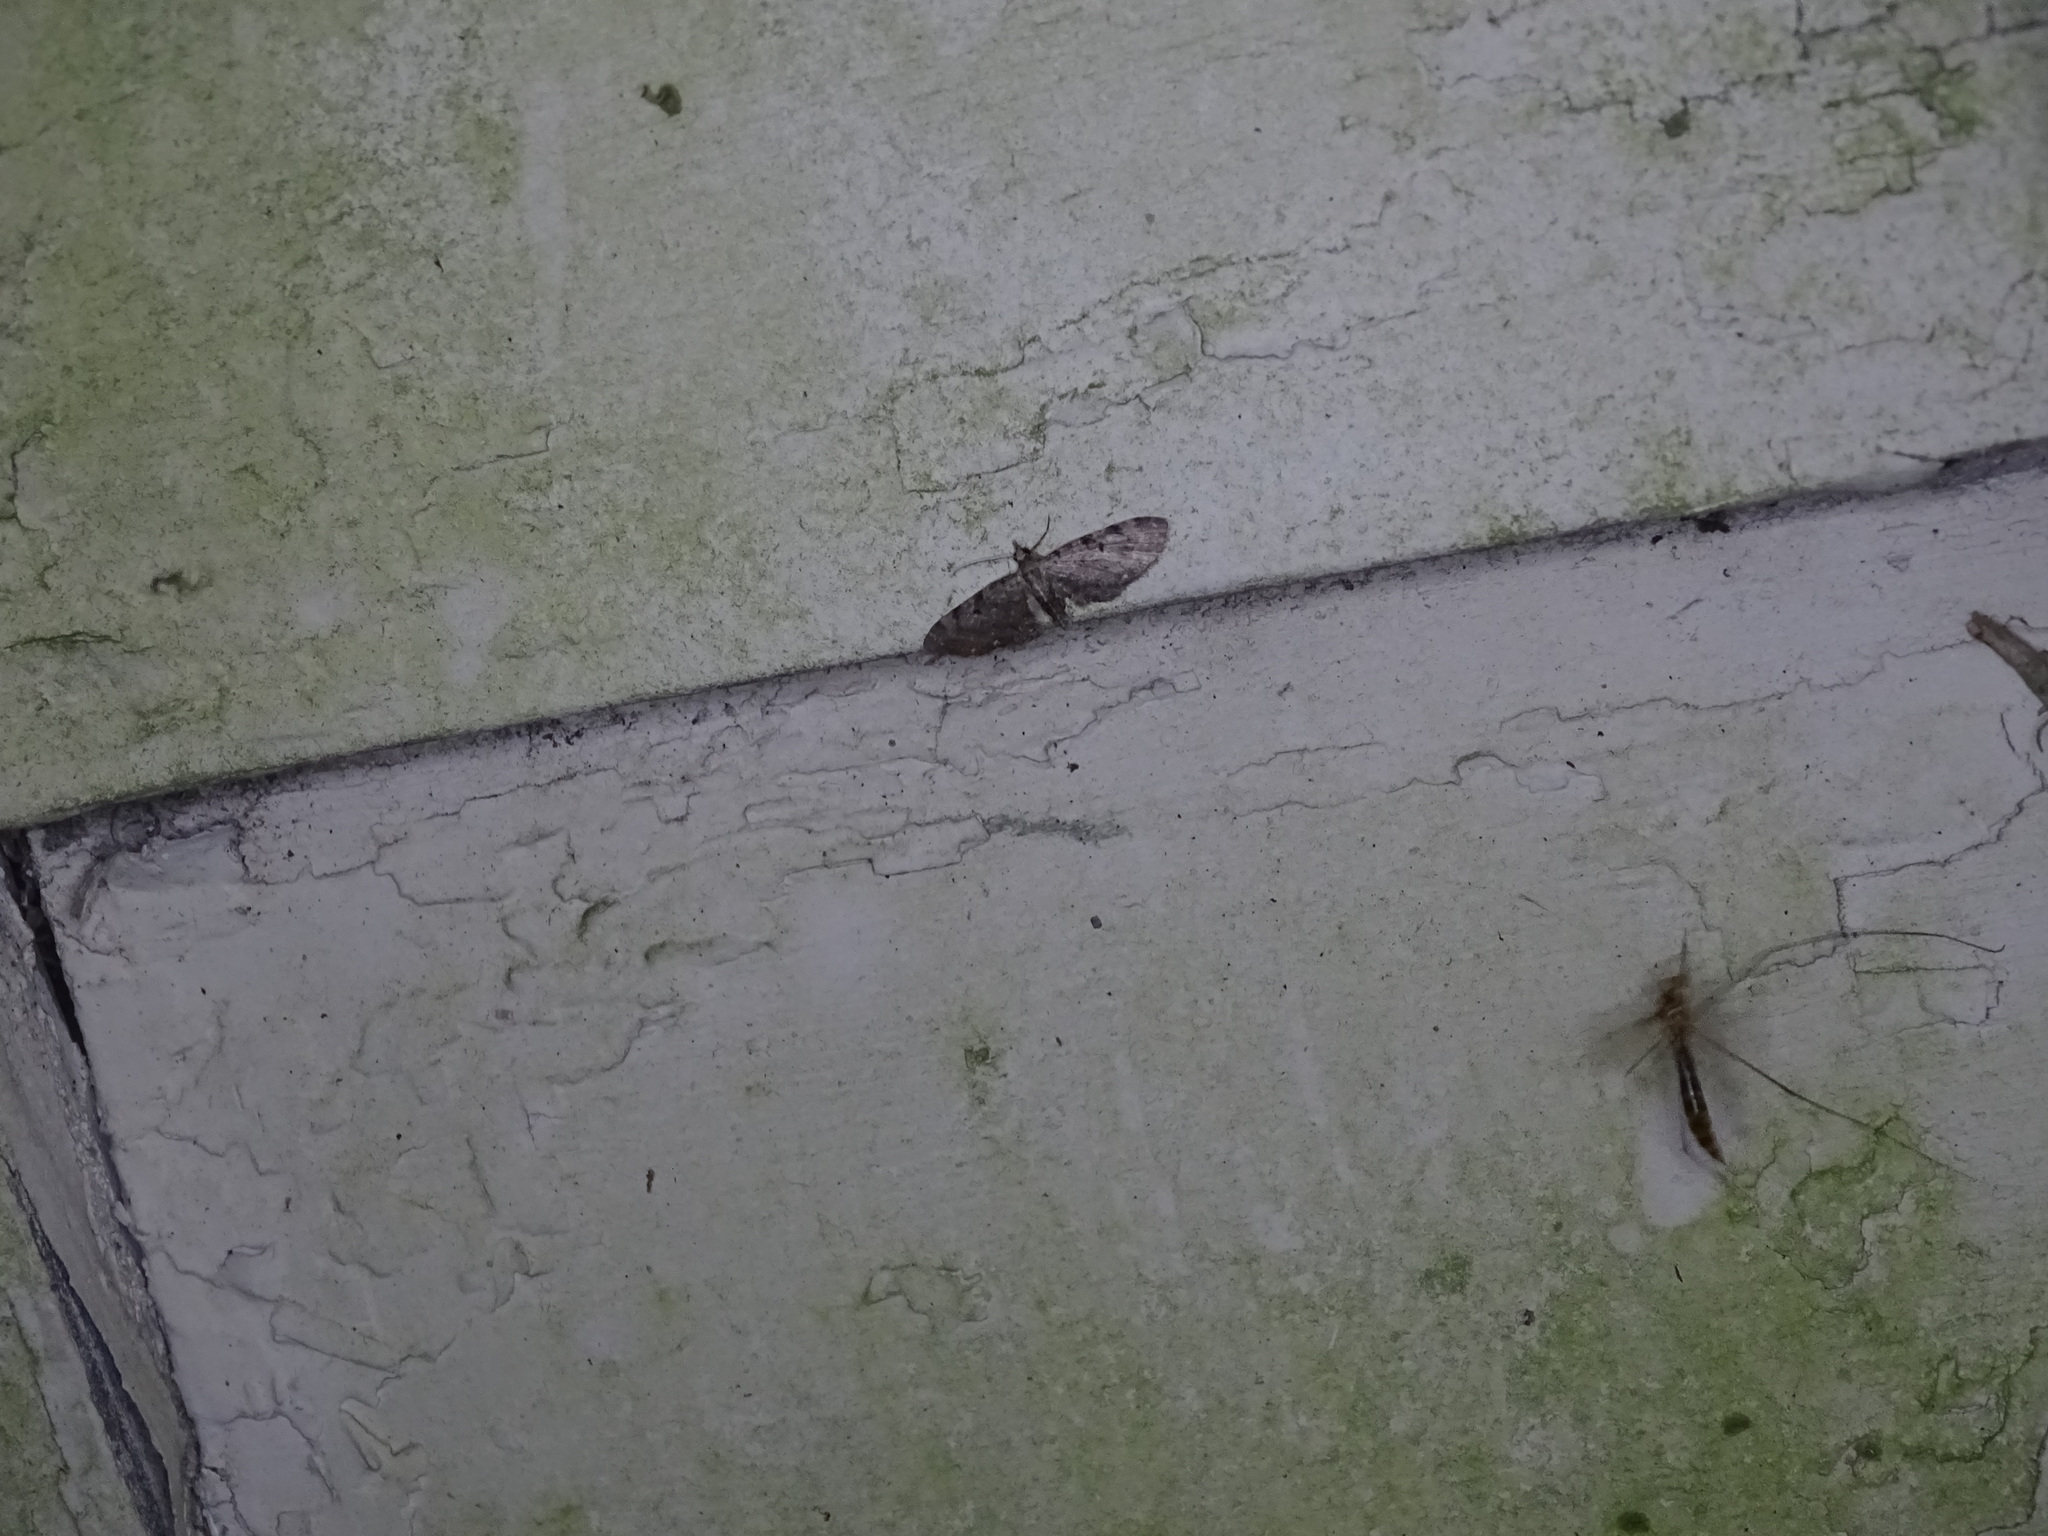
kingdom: Animalia
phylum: Arthropoda
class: Insecta
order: Lepidoptera
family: Geometridae
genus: Eupithecia
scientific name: Eupithecia miserulata
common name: Common eupithecia
